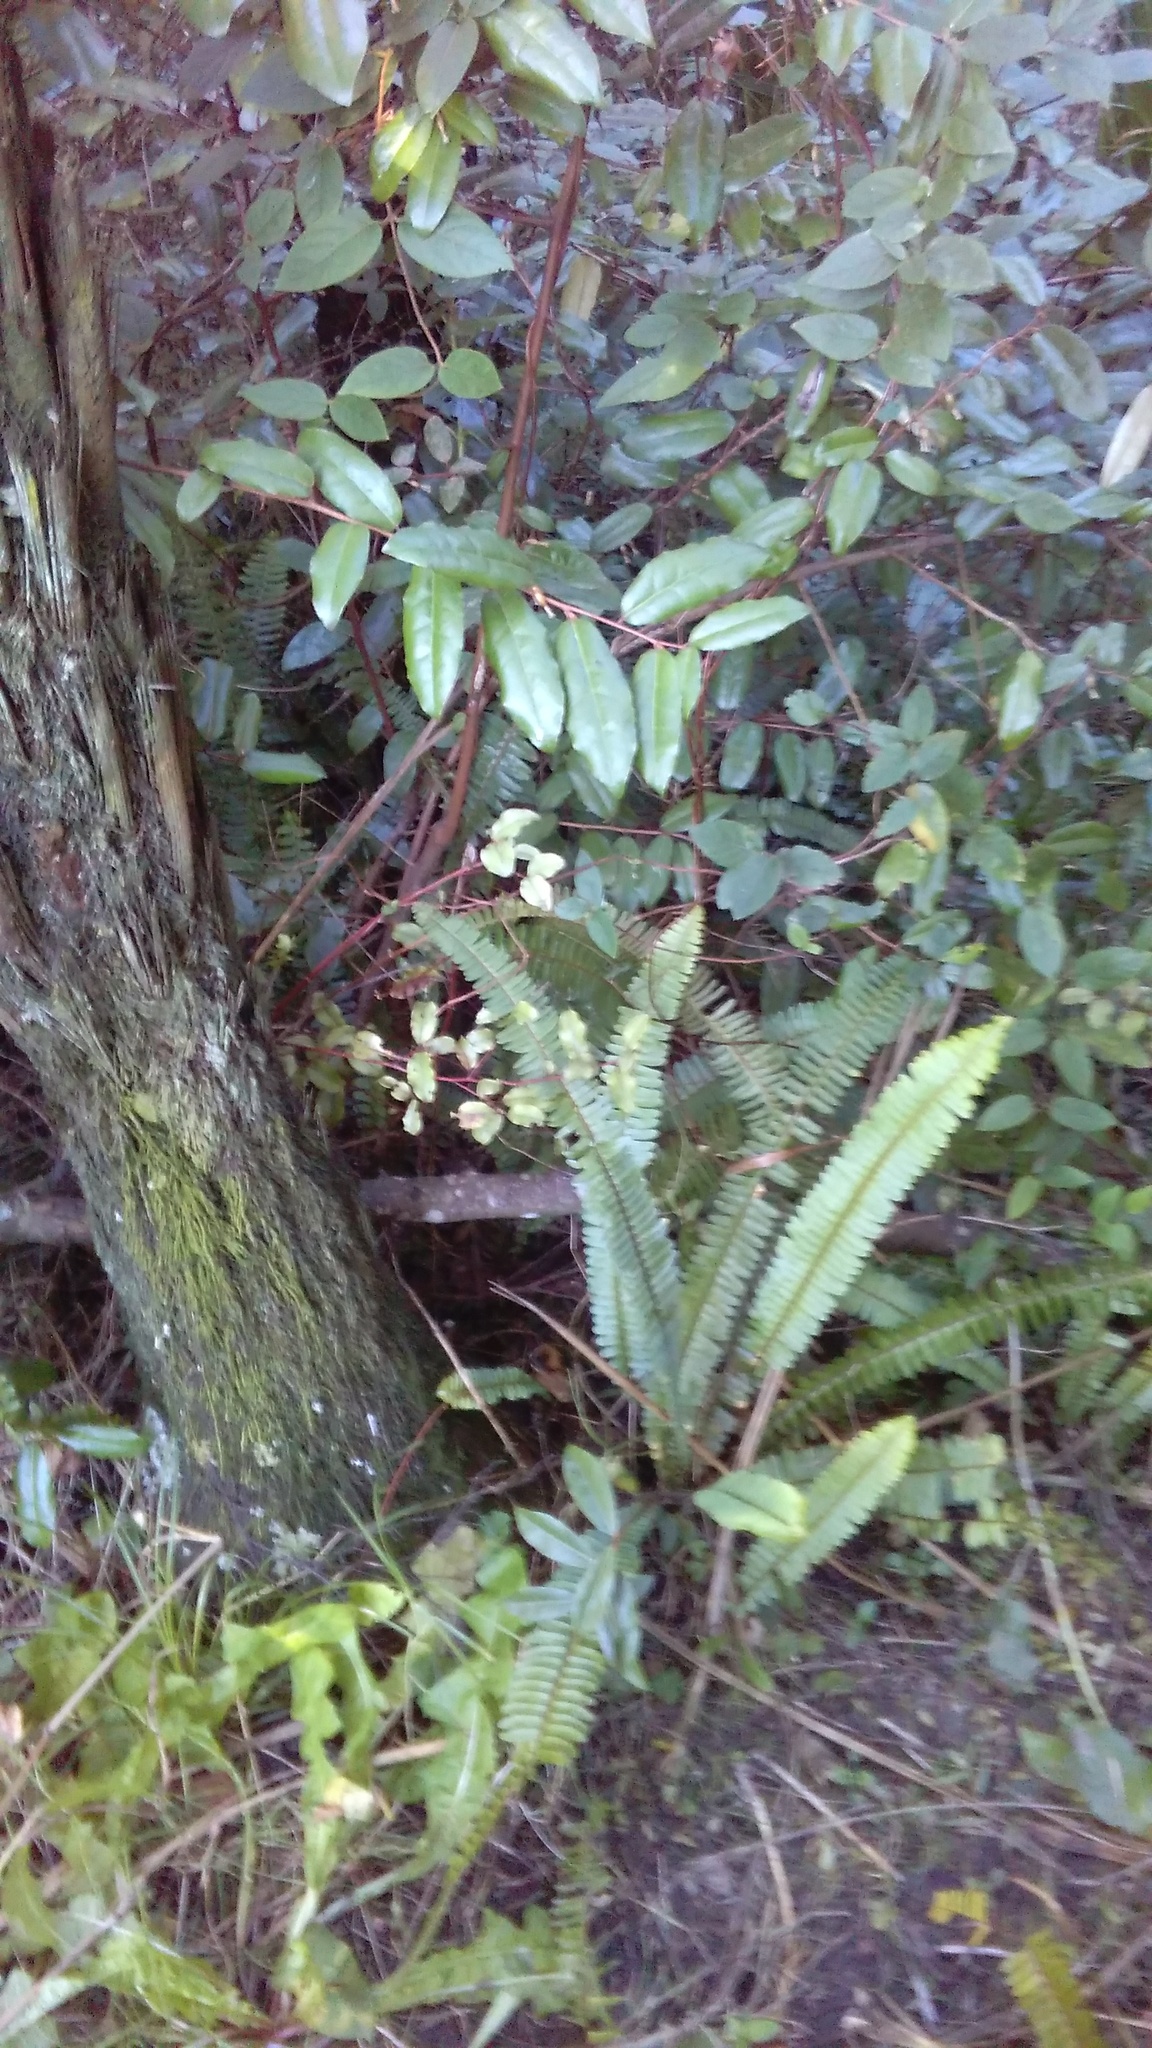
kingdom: Plantae
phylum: Tracheophyta
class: Polypodiopsida
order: Polypodiales
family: Nephrolepidaceae
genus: Nephrolepis
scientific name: Nephrolepis cordifolia
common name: Narrow swordfern
